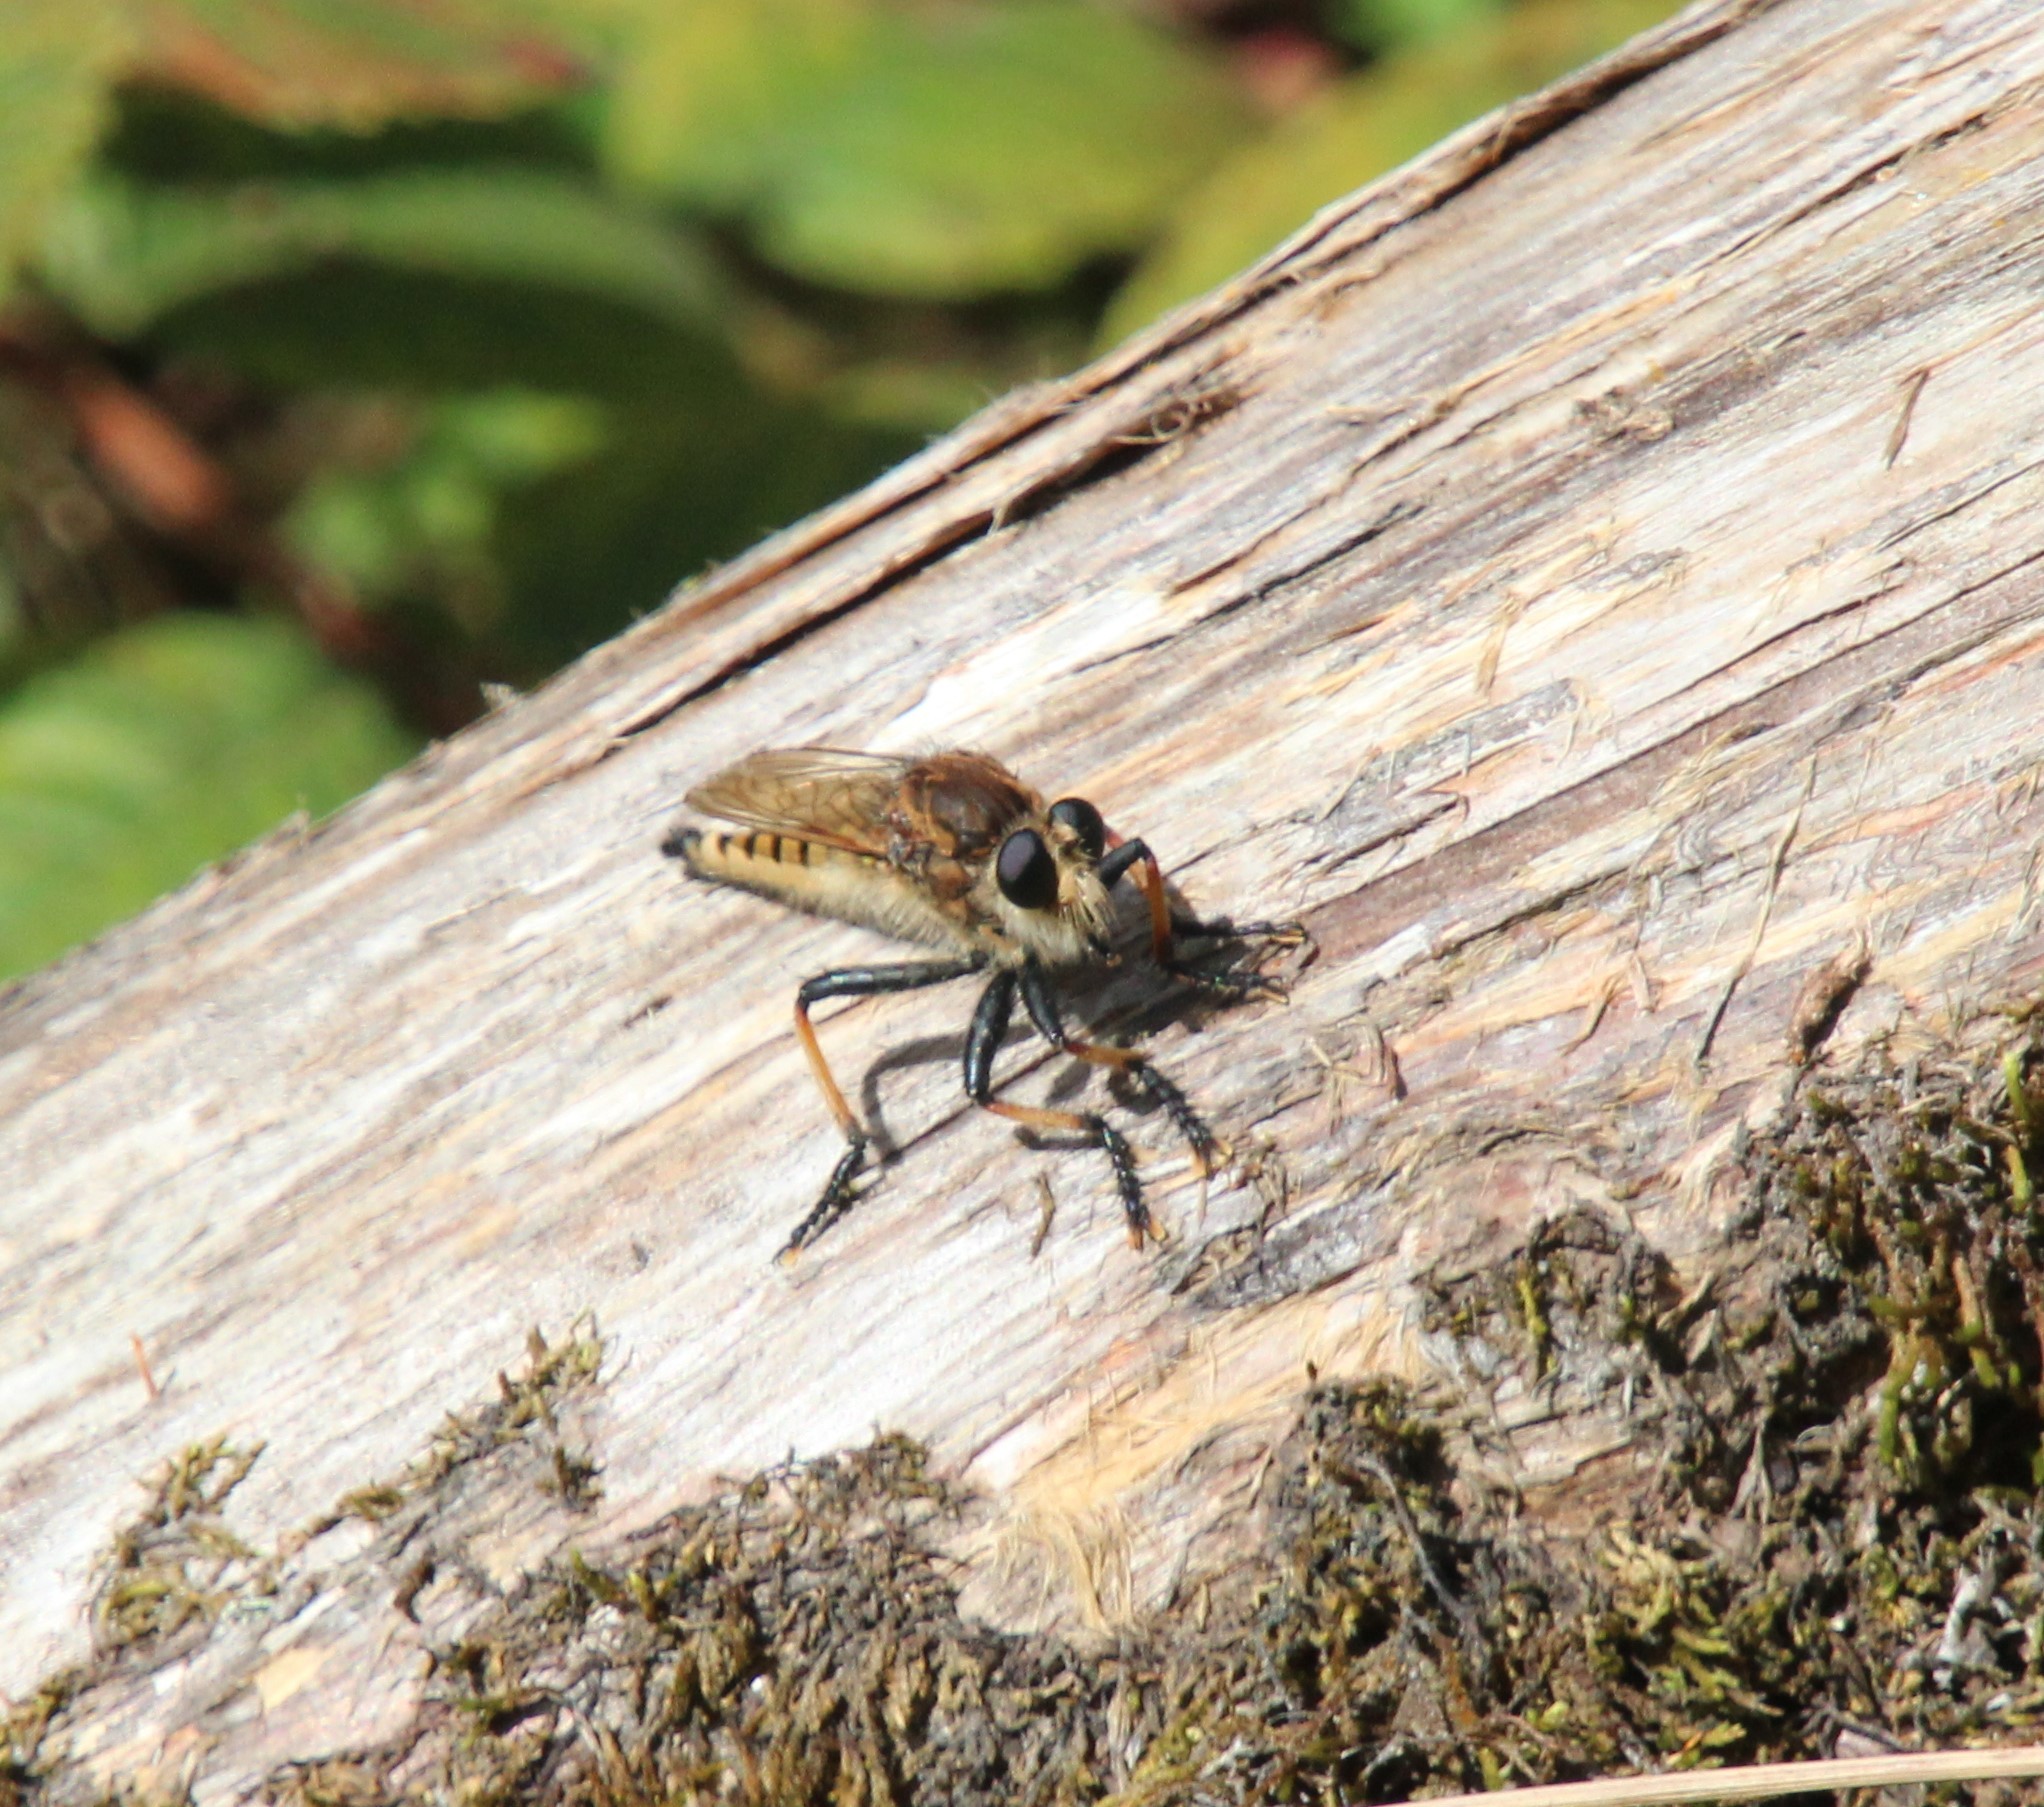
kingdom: Animalia
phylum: Arthropoda
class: Insecta
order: Diptera
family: Asilidae
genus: Promachus
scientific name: Promachus rufipes
